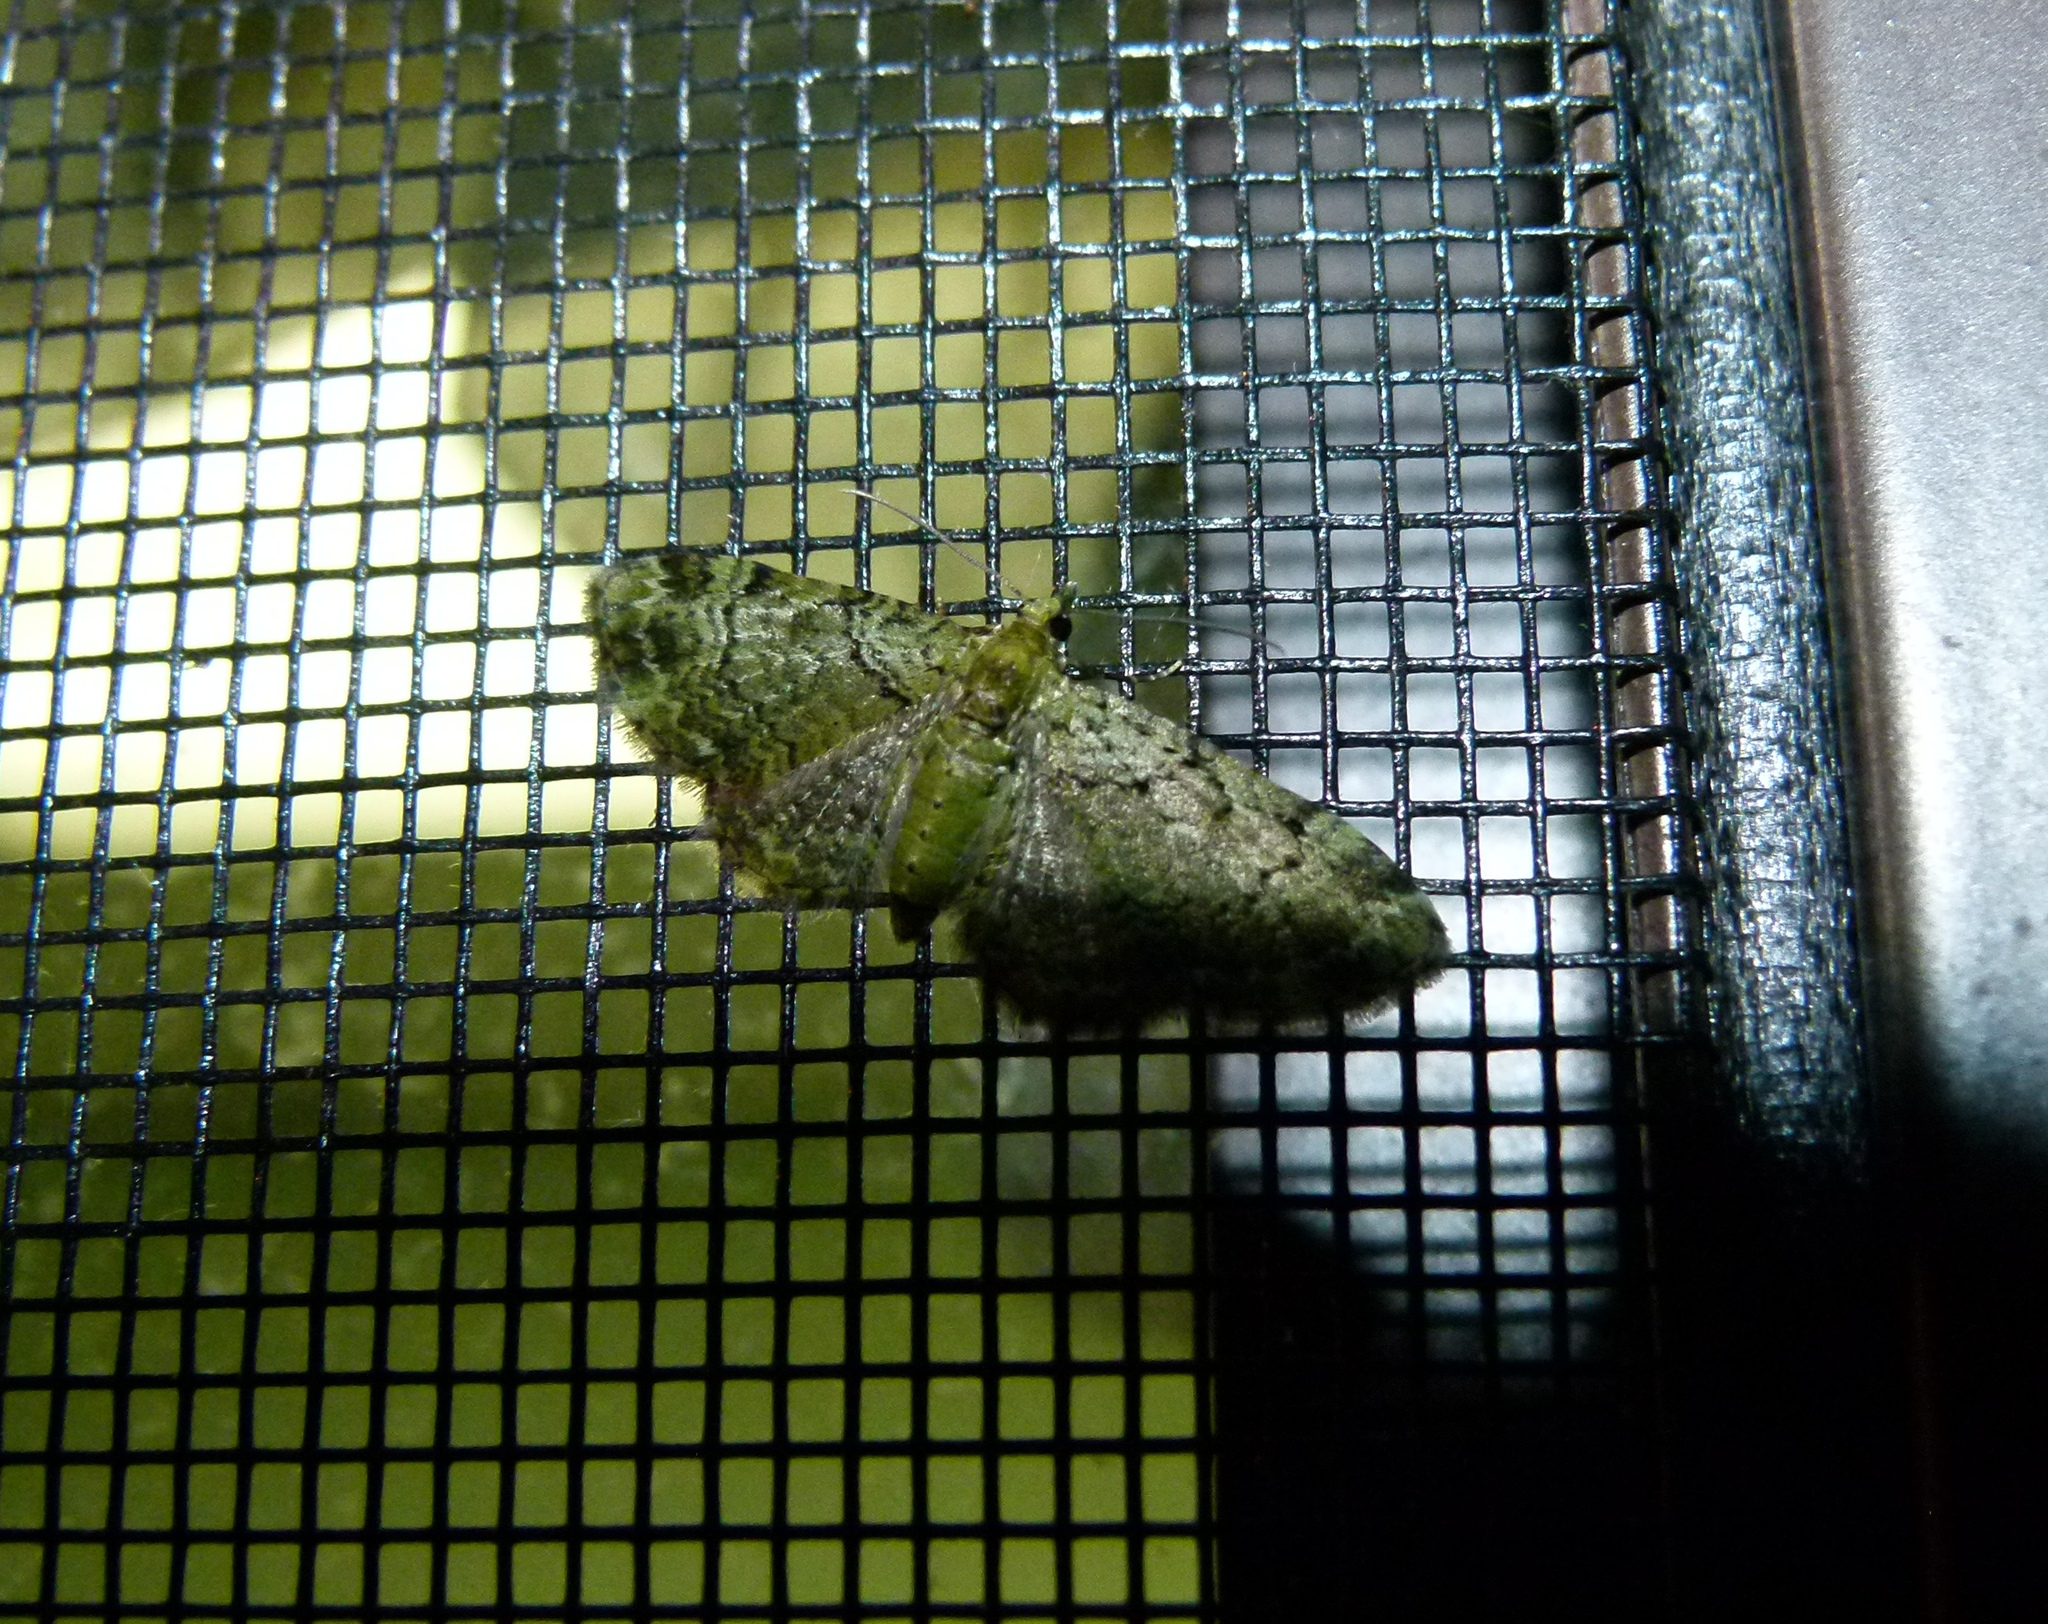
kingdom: Animalia
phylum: Arthropoda
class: Insecta
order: Lepidoptera
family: Geometridae
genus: Pasiphila
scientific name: Pasiphila rectangulata
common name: Green pug
